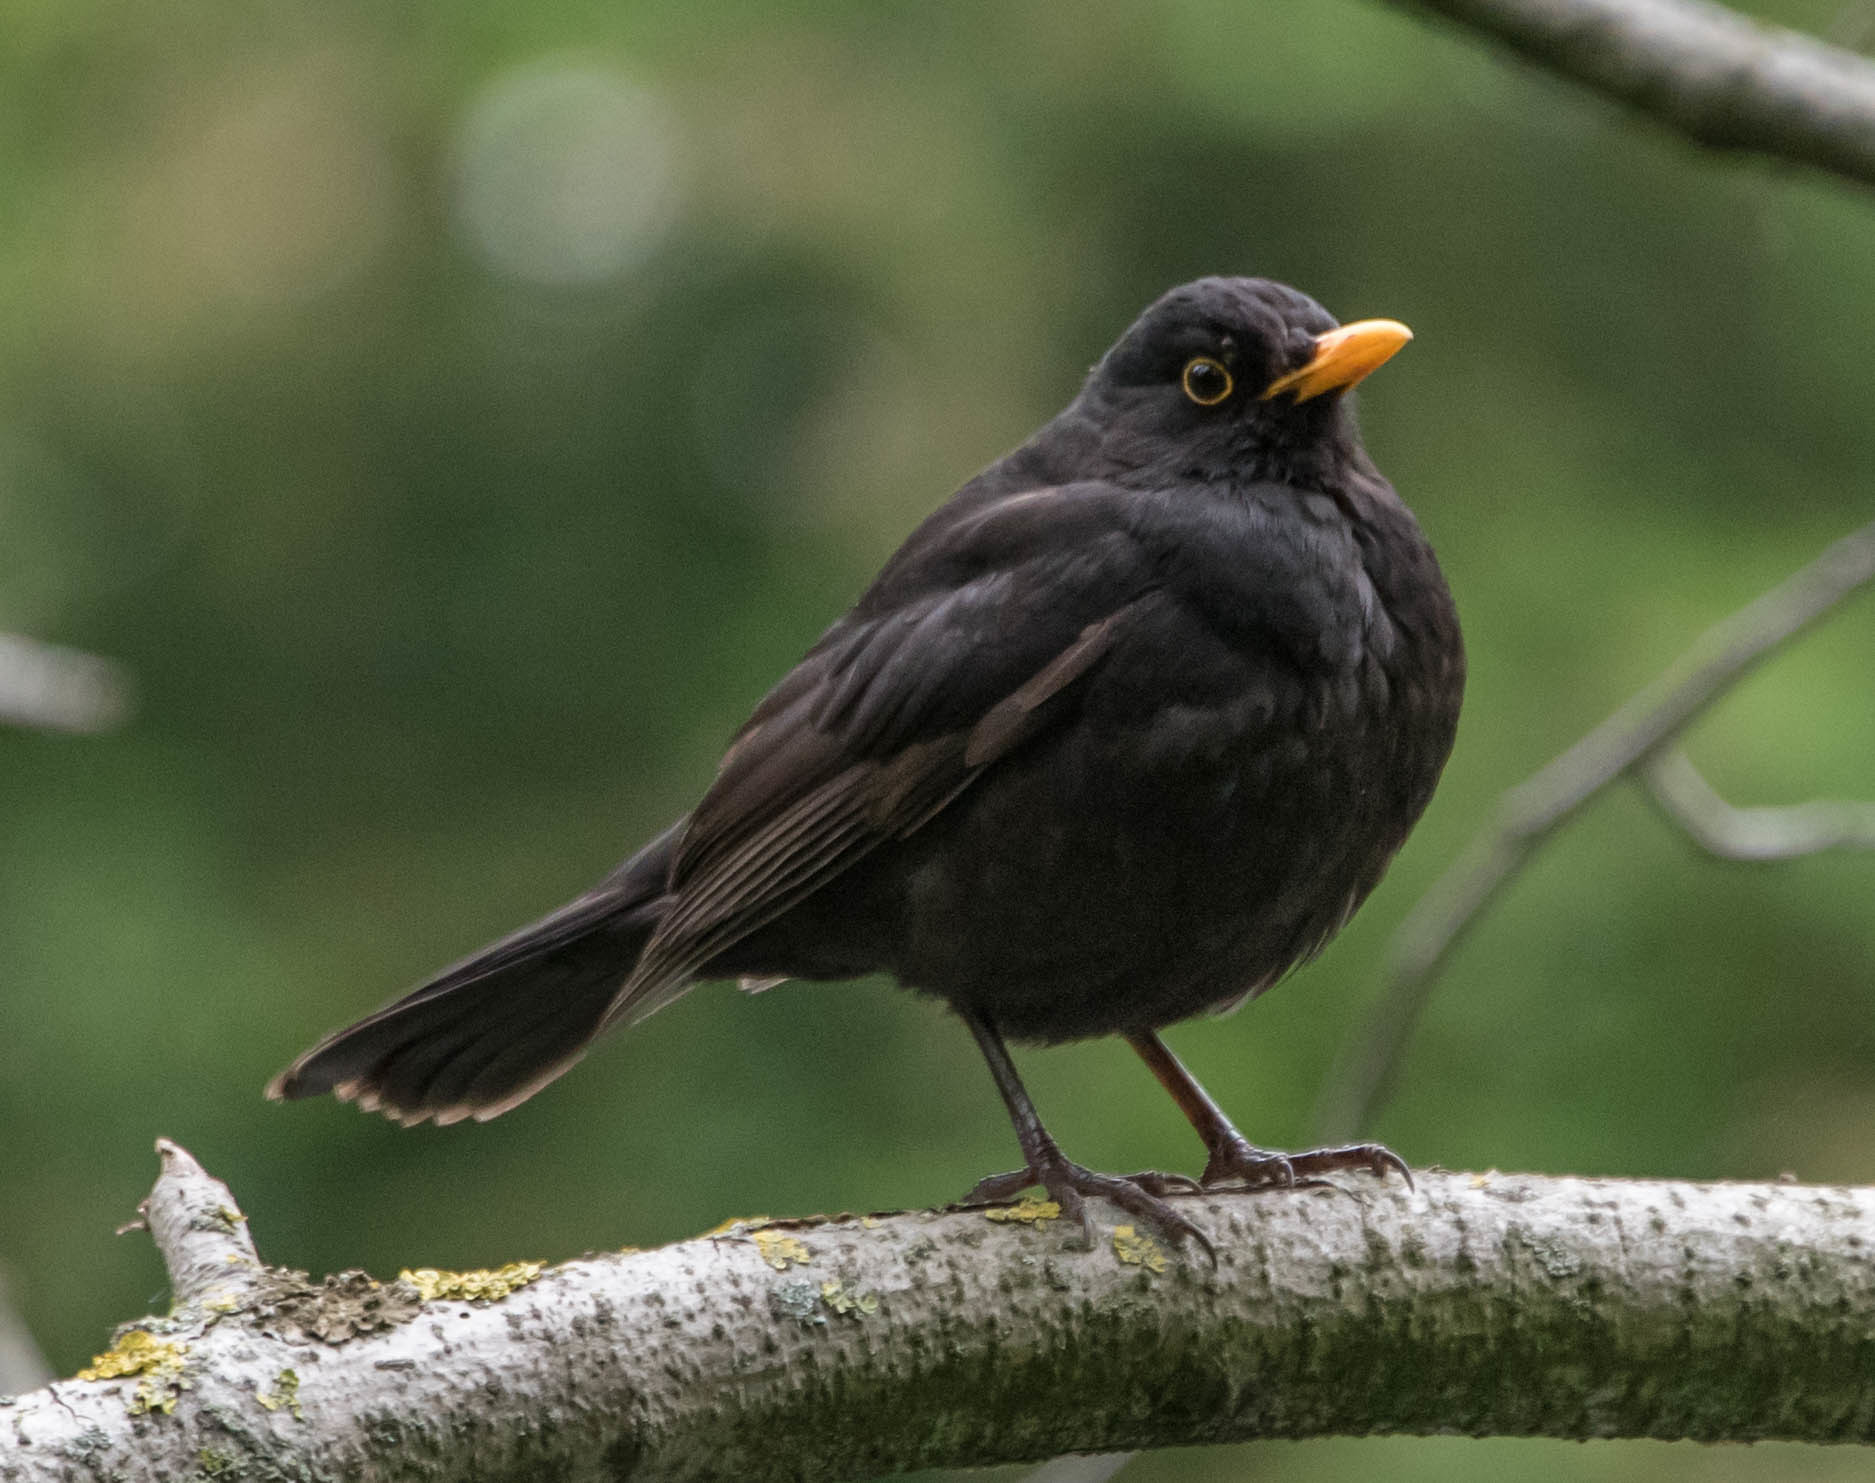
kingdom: Animalia
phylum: Chordata
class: Aves
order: Passeriformes
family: Turdidae
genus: Turdus
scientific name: Turdus merula
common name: Common blackbird
